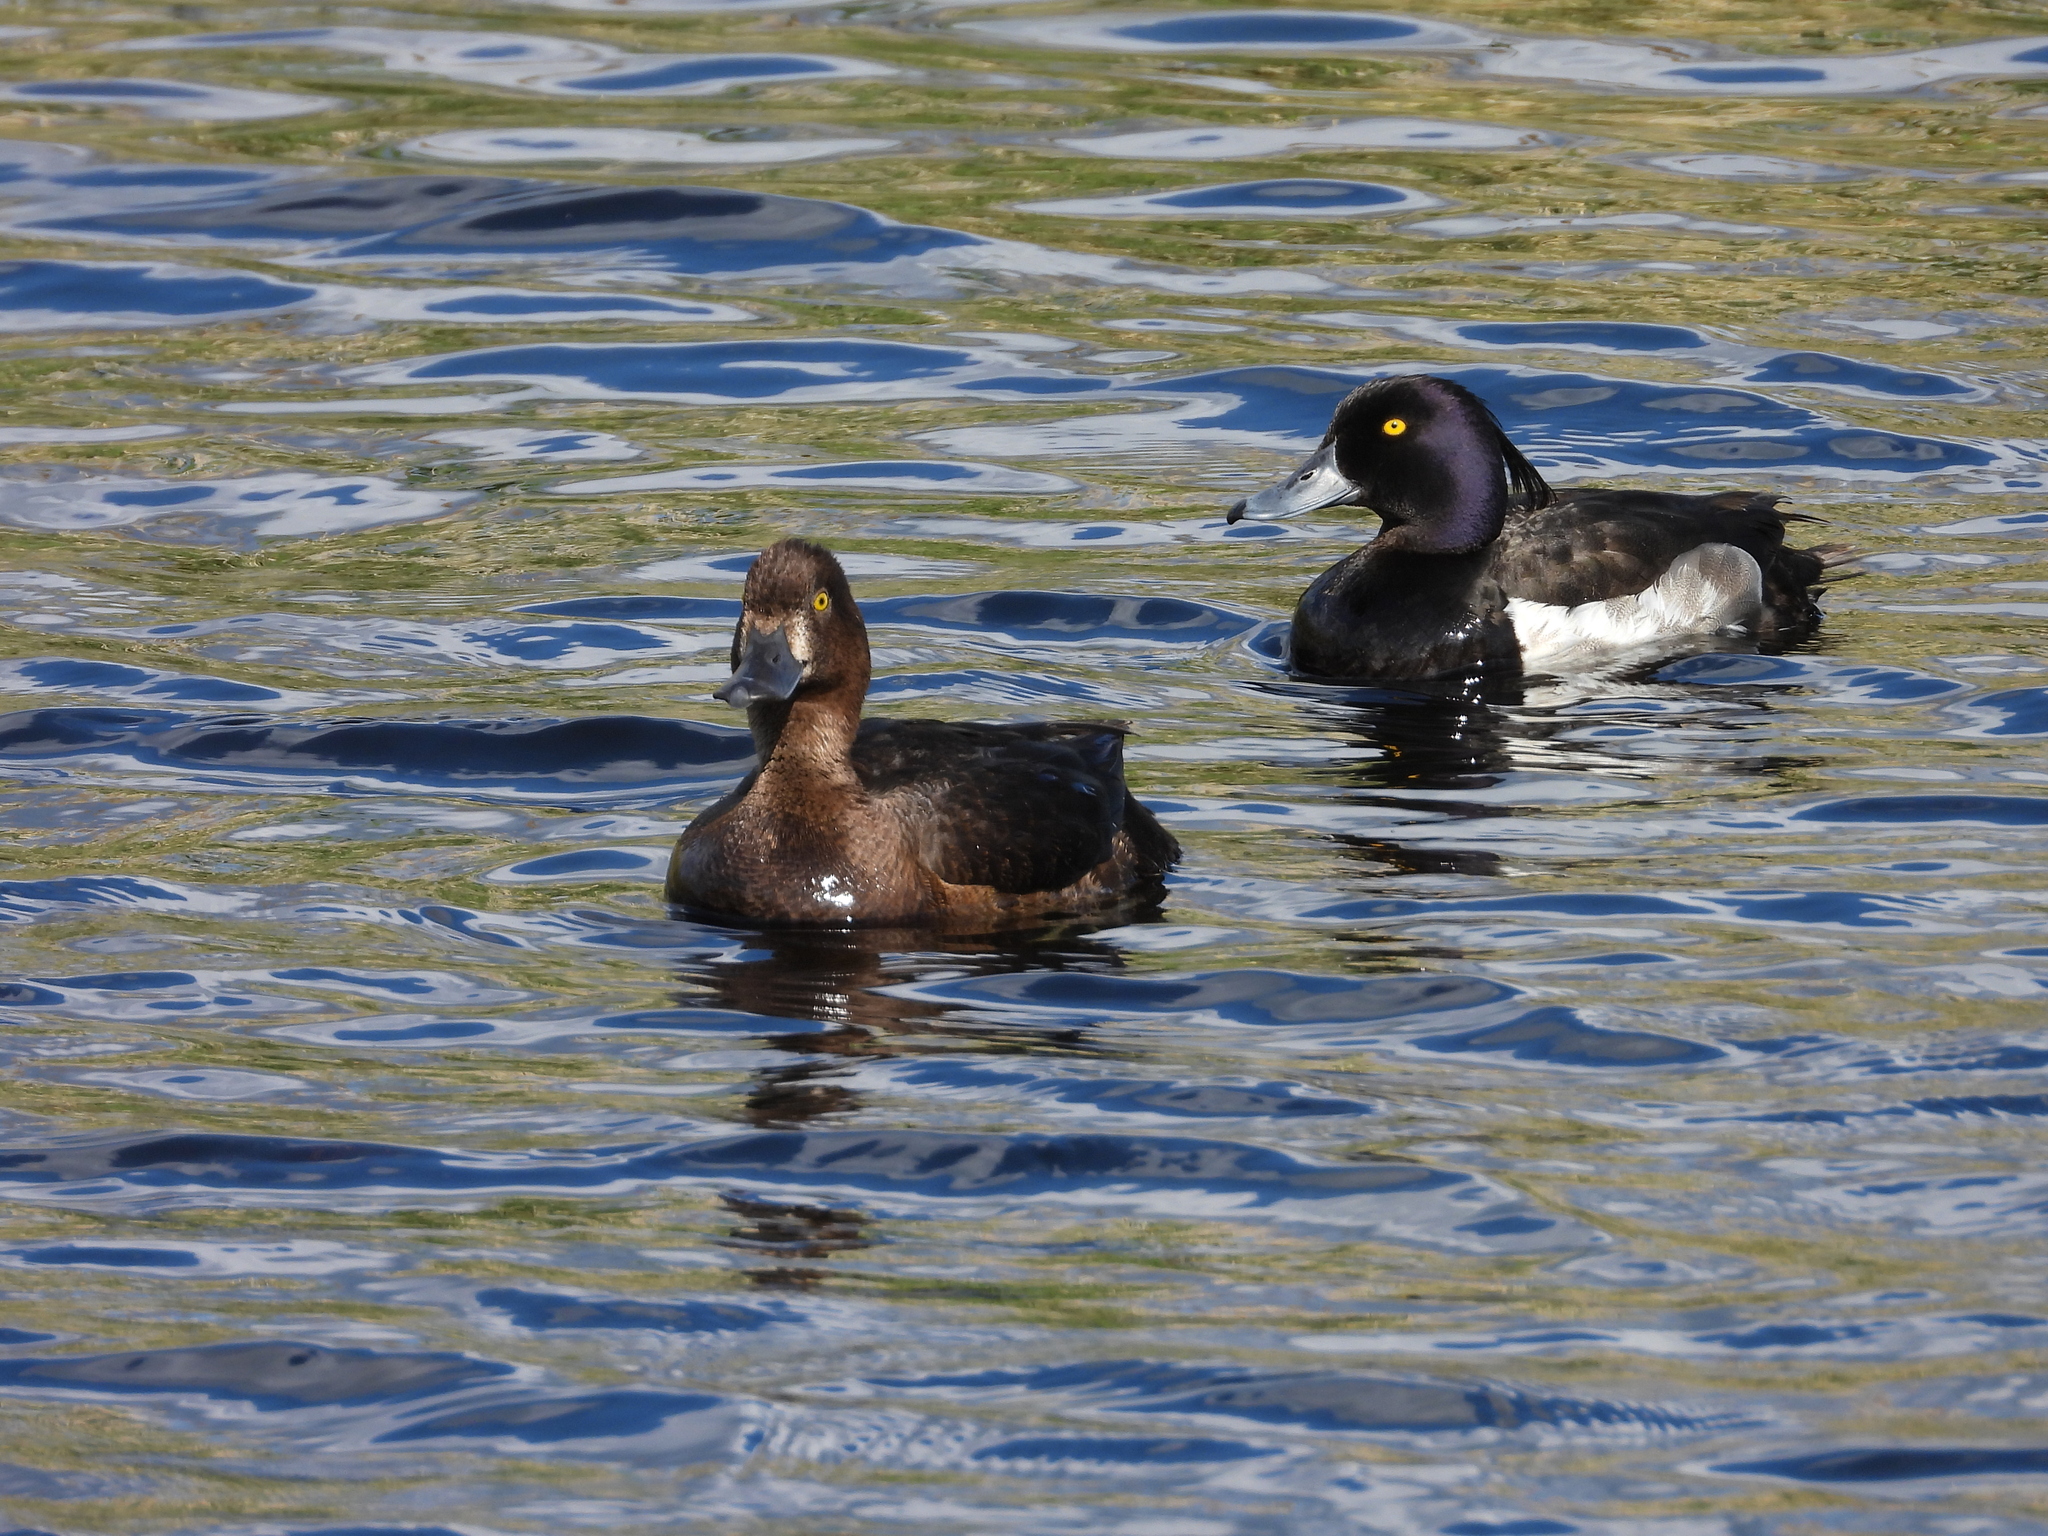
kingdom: Animalia
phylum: Chordata
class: Aves
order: Anseriformes
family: Anatidae
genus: Aythya
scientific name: Aythya fuligula
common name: Tufted duck
